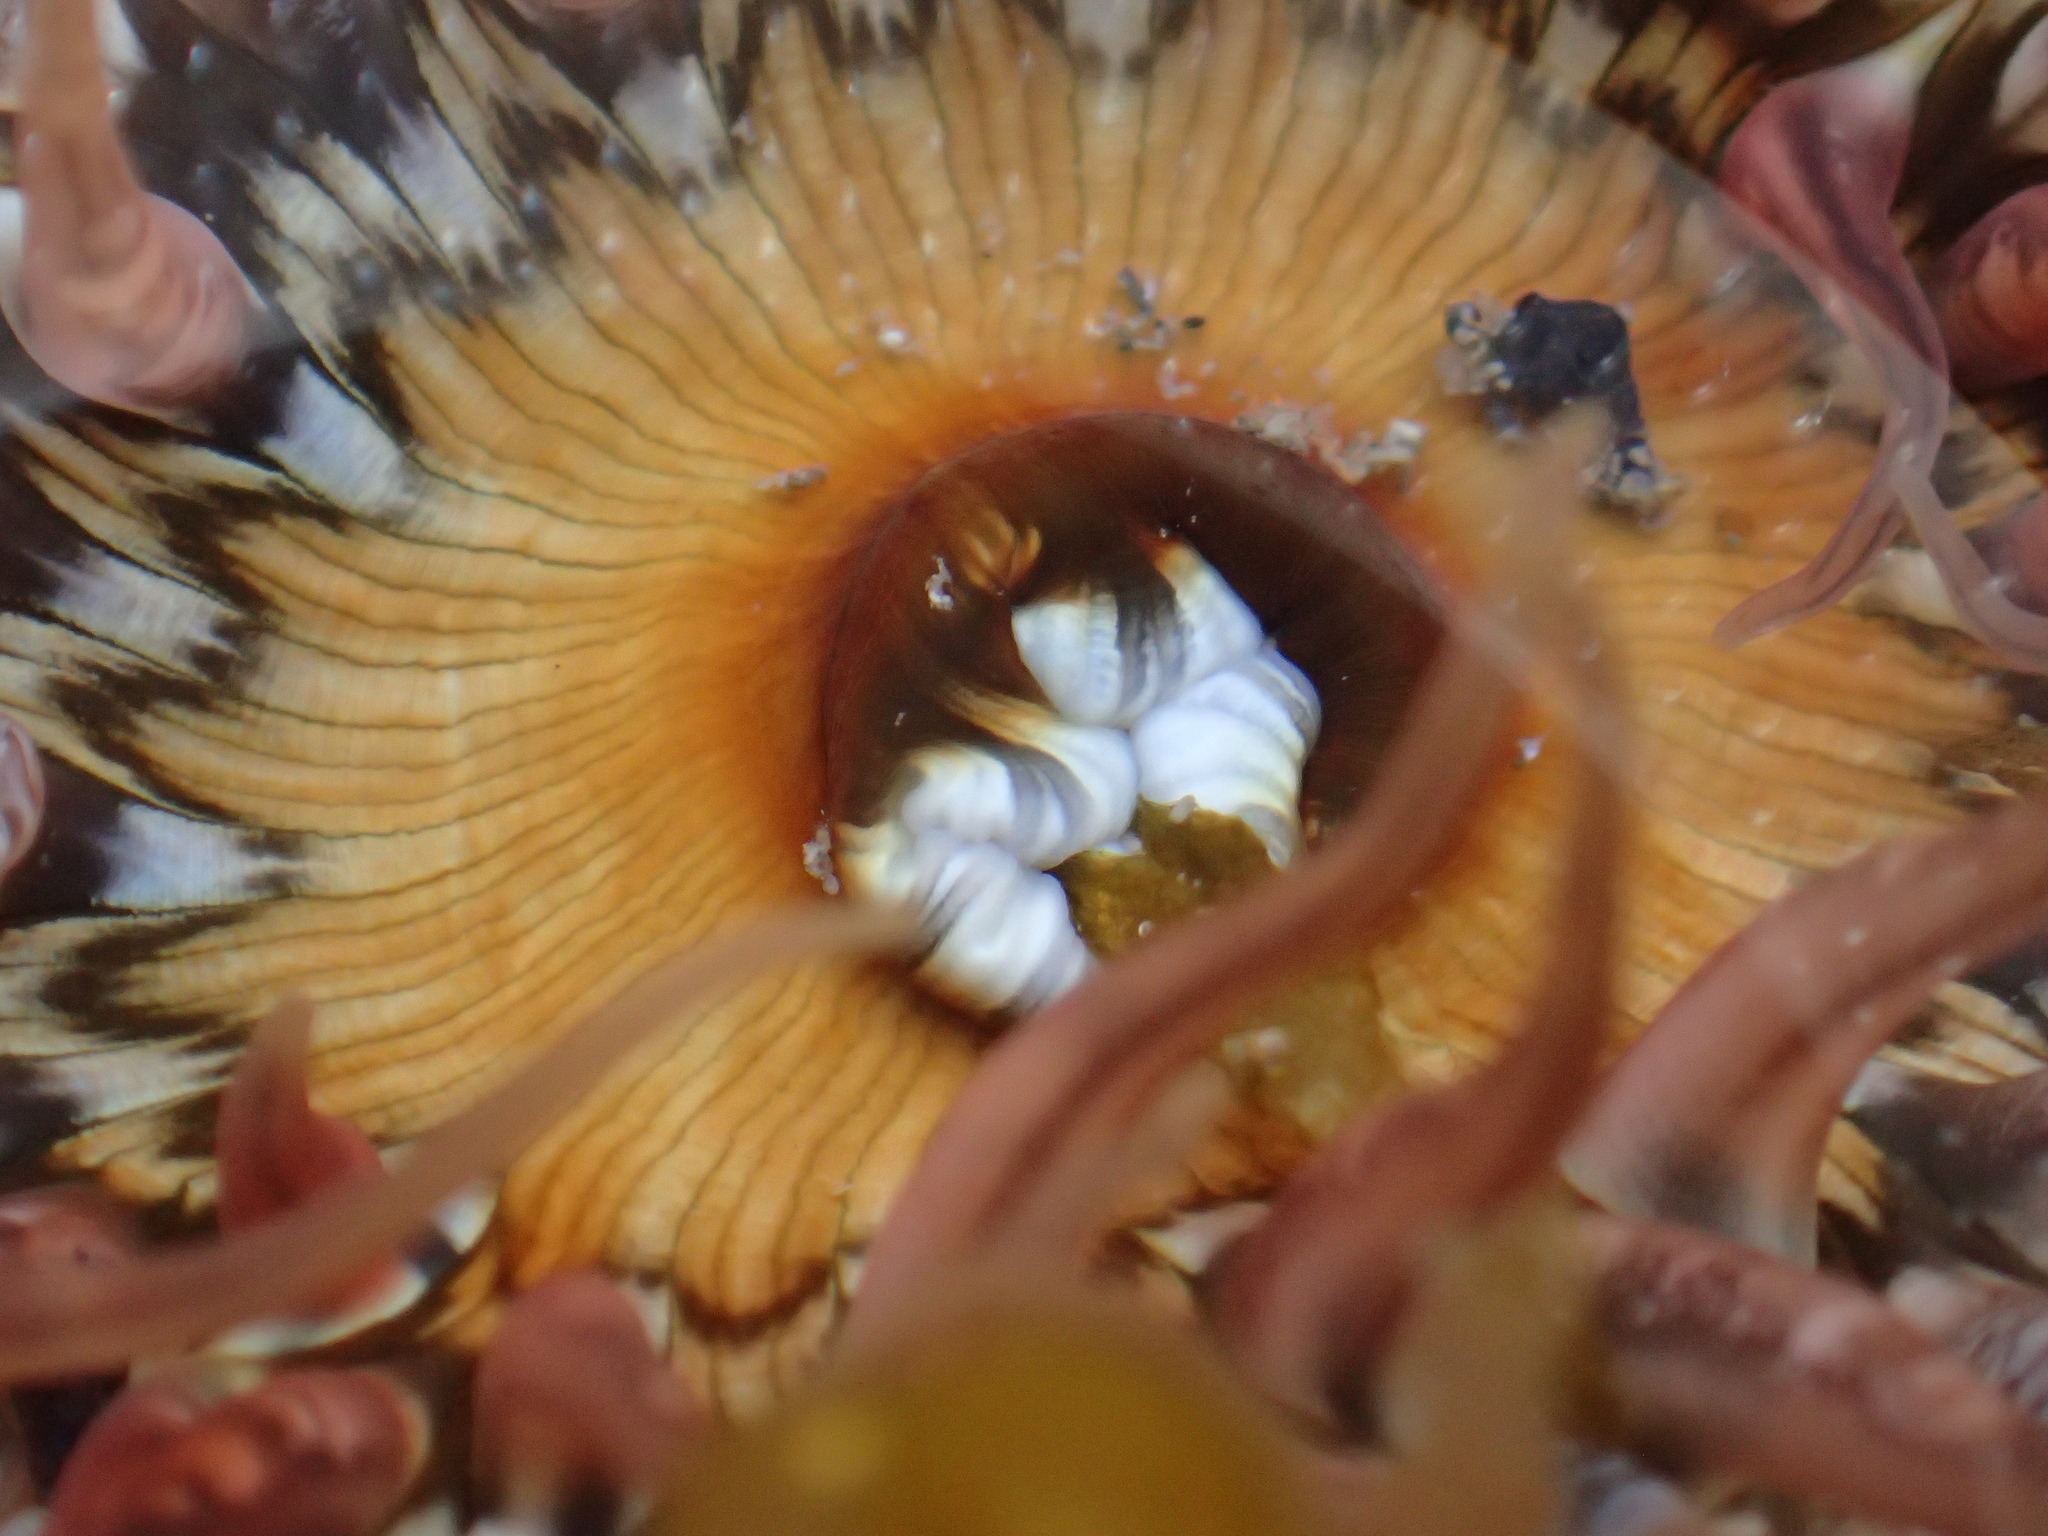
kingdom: Animalia
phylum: Cnidaria
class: Anthozoa
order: Actiniaria
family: Actiniidae
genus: Oulactis
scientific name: Oulactis muscosa
